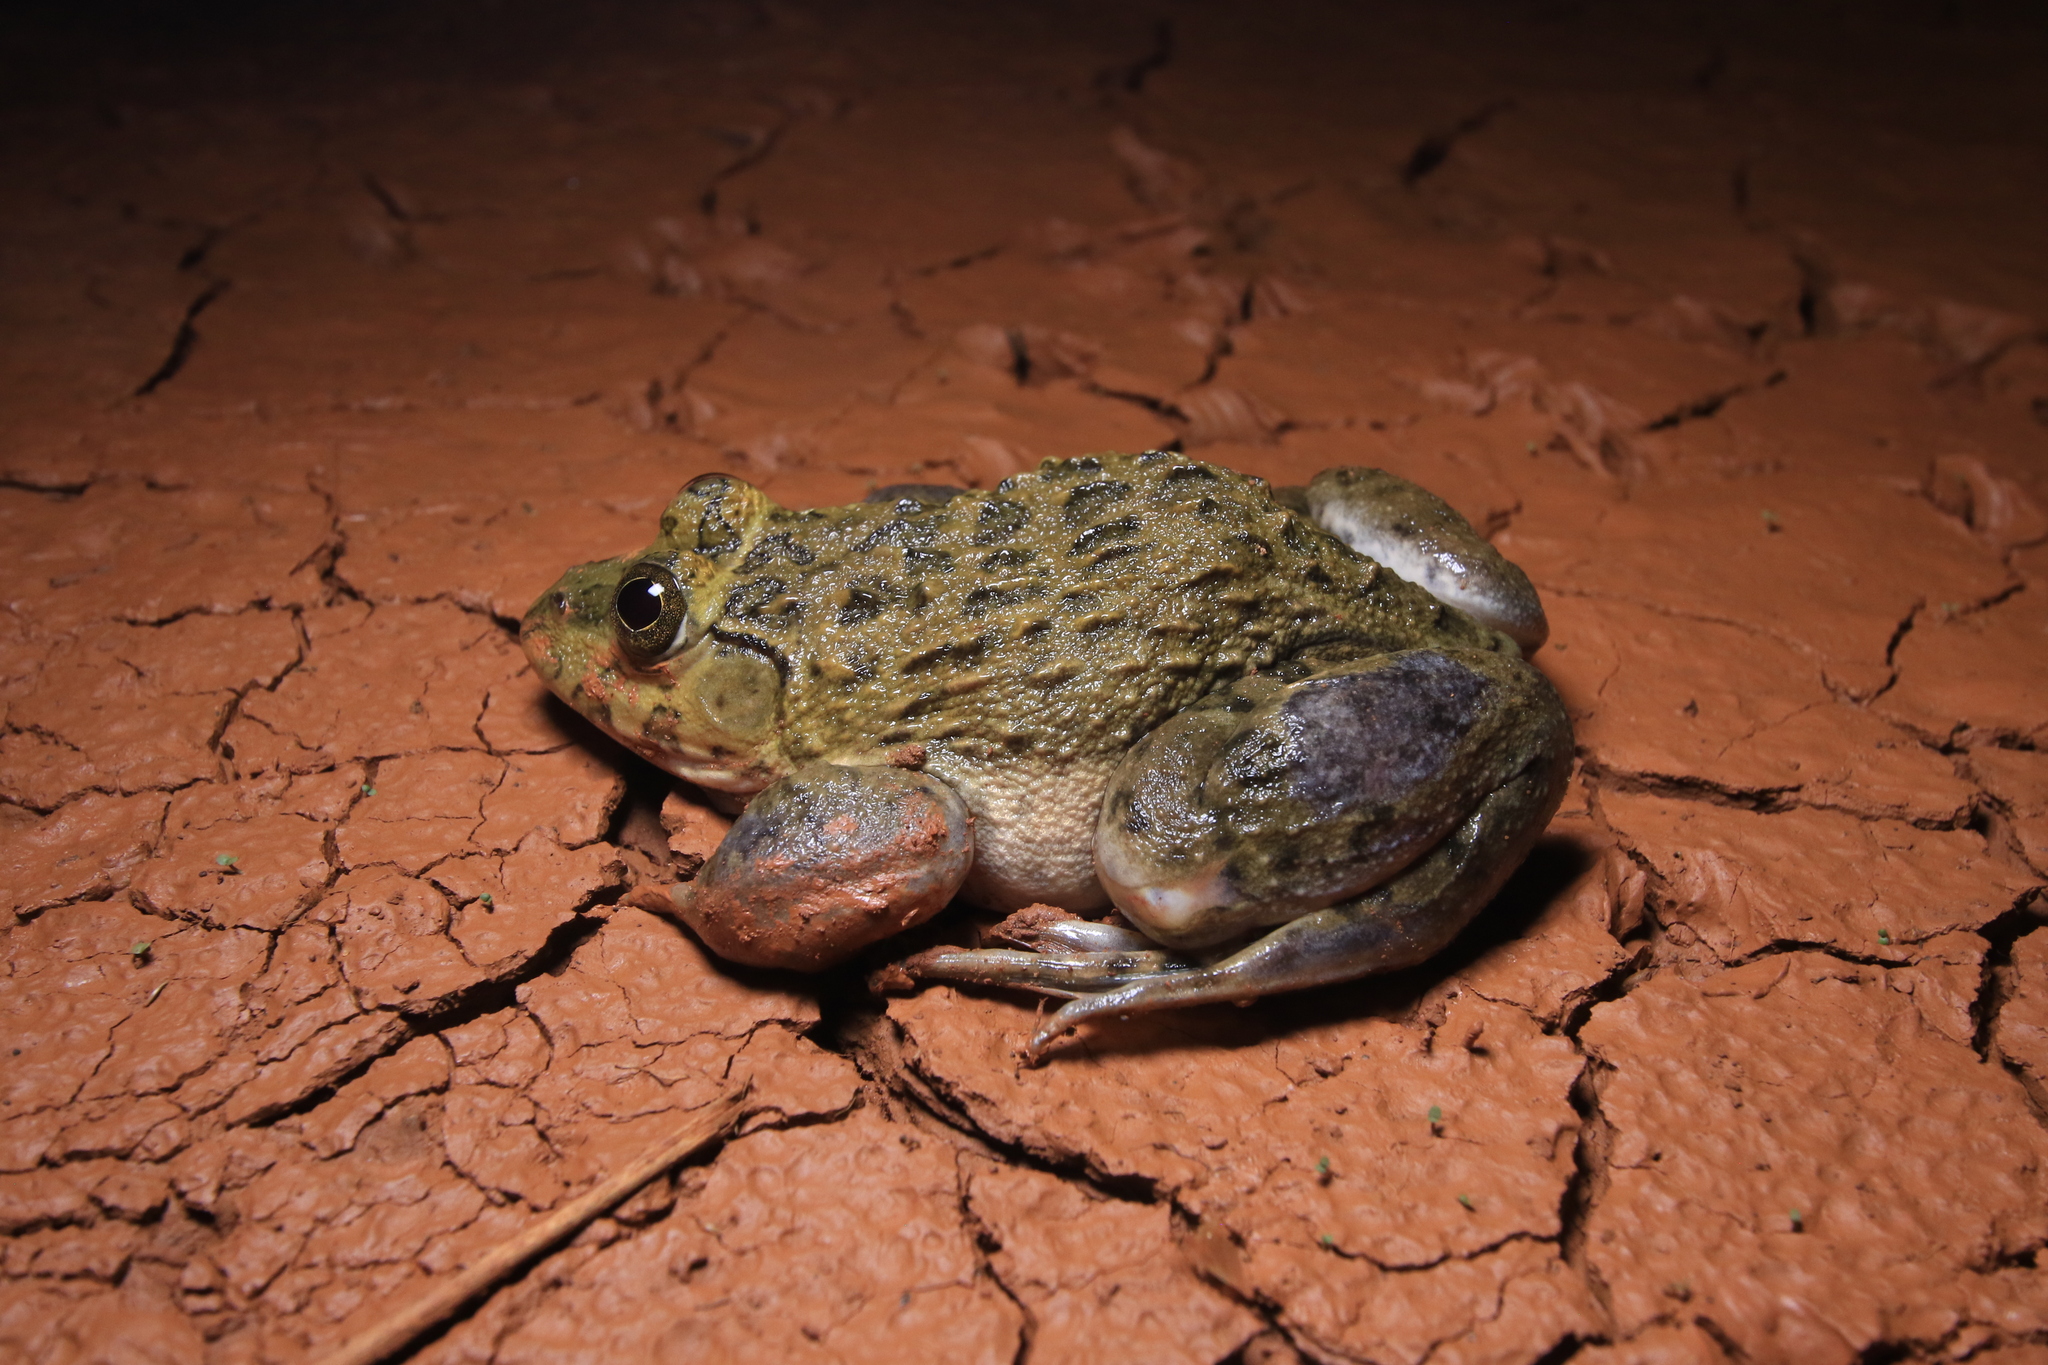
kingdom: Animalia
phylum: Chordata
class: Amphibia
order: Anura
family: Dicroglossidae
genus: Hoplobatrachus
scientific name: Hoplobatrachus occipitalis
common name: Eastern groove-crowned bullfrog
